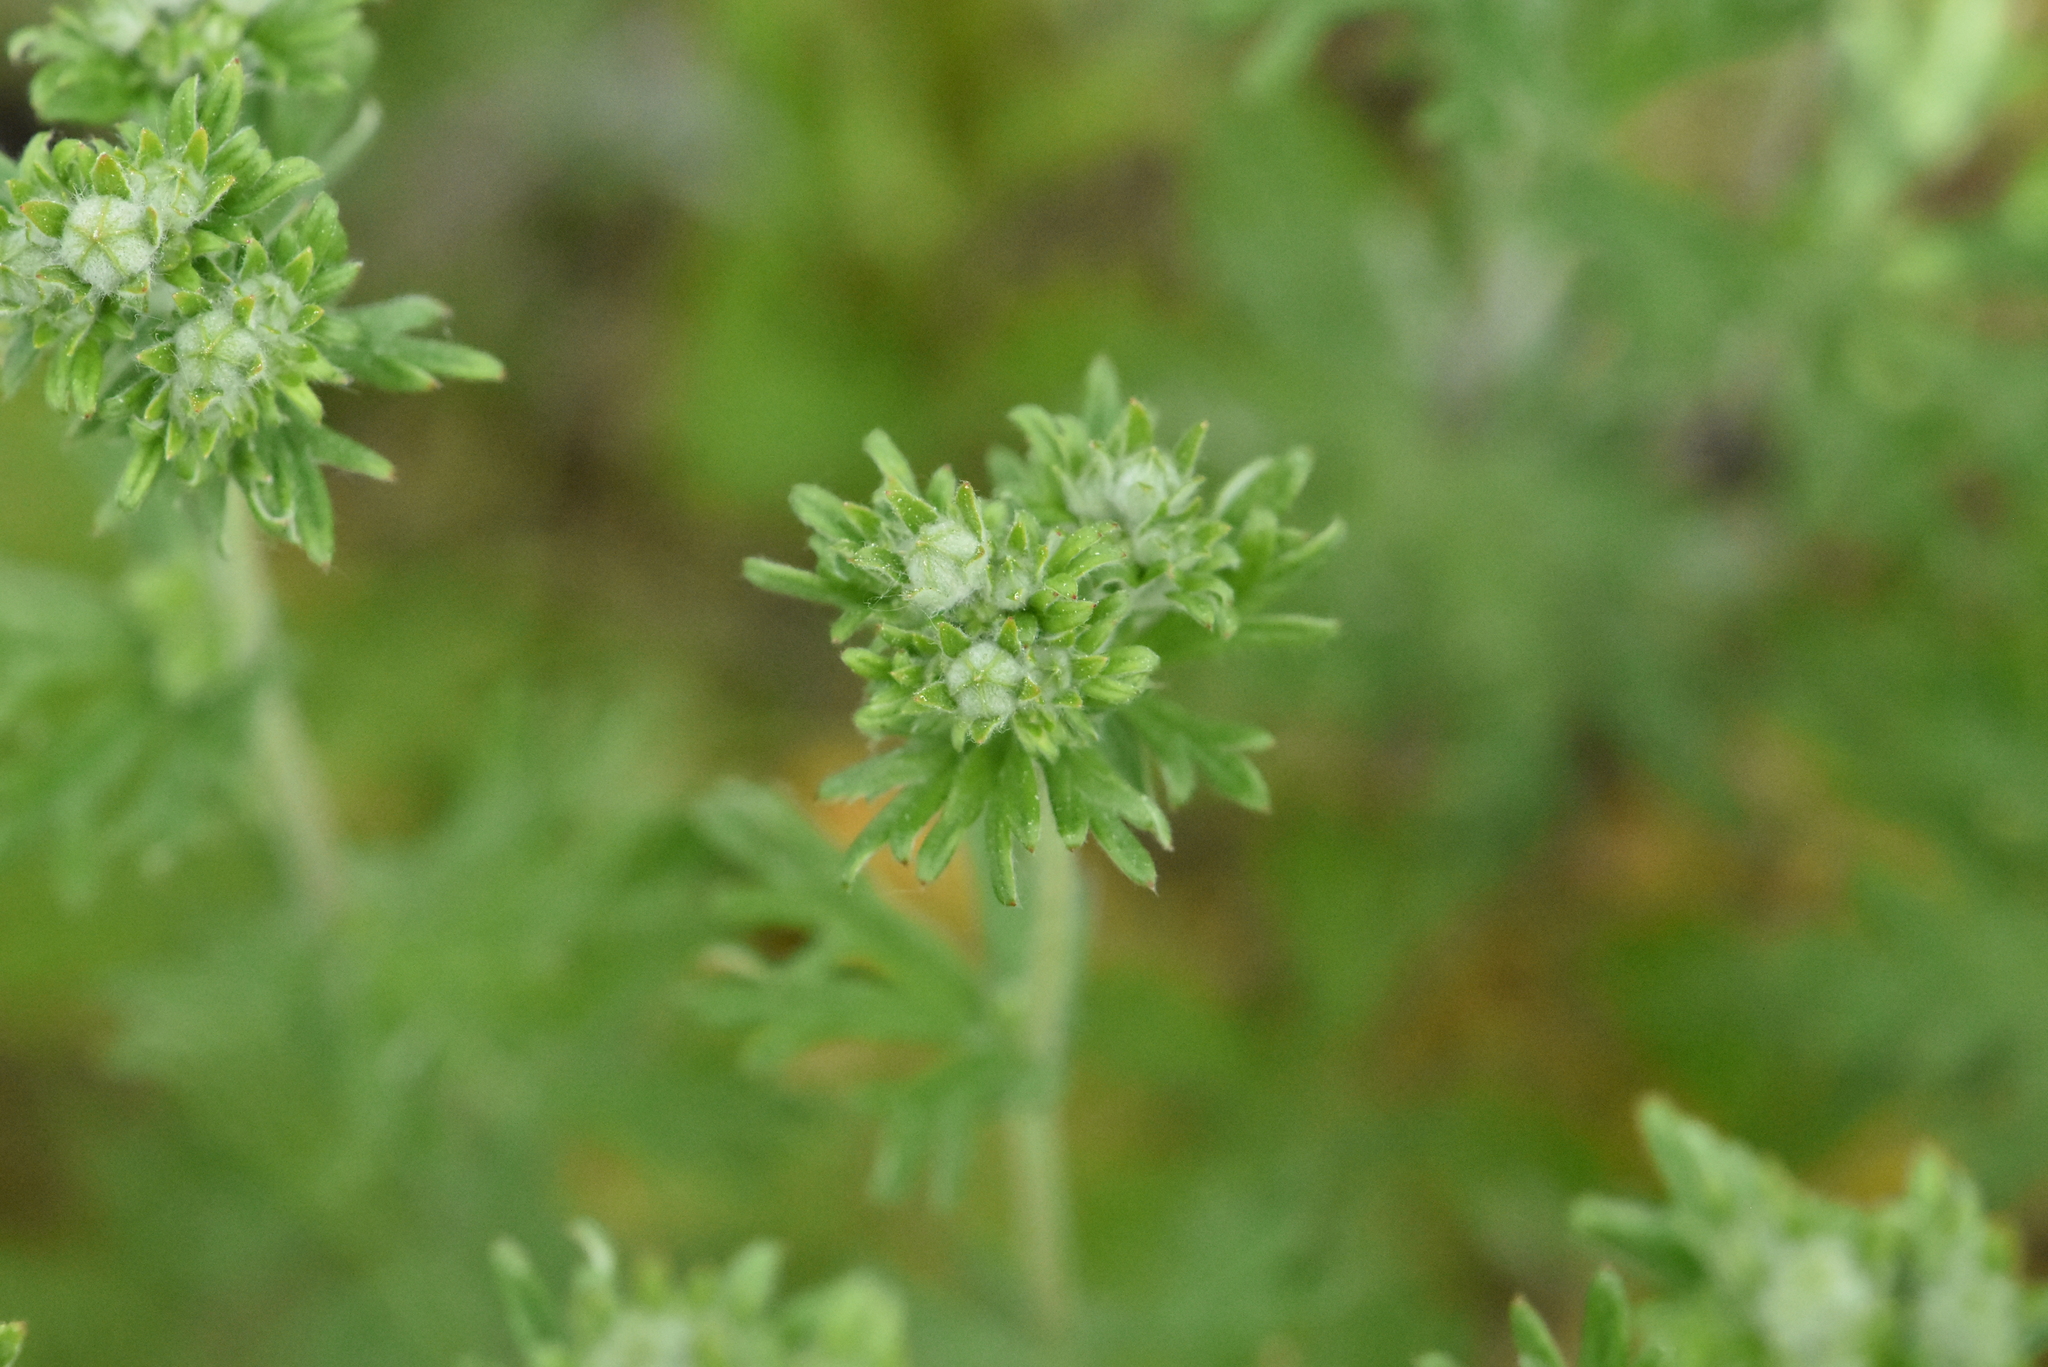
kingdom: Plantae
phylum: Tracheophyta
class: Magnoliopsida
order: Rosales
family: Rosaceae
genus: Potentilla
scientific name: Potentilla argentea
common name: Hoary cinquefoil
